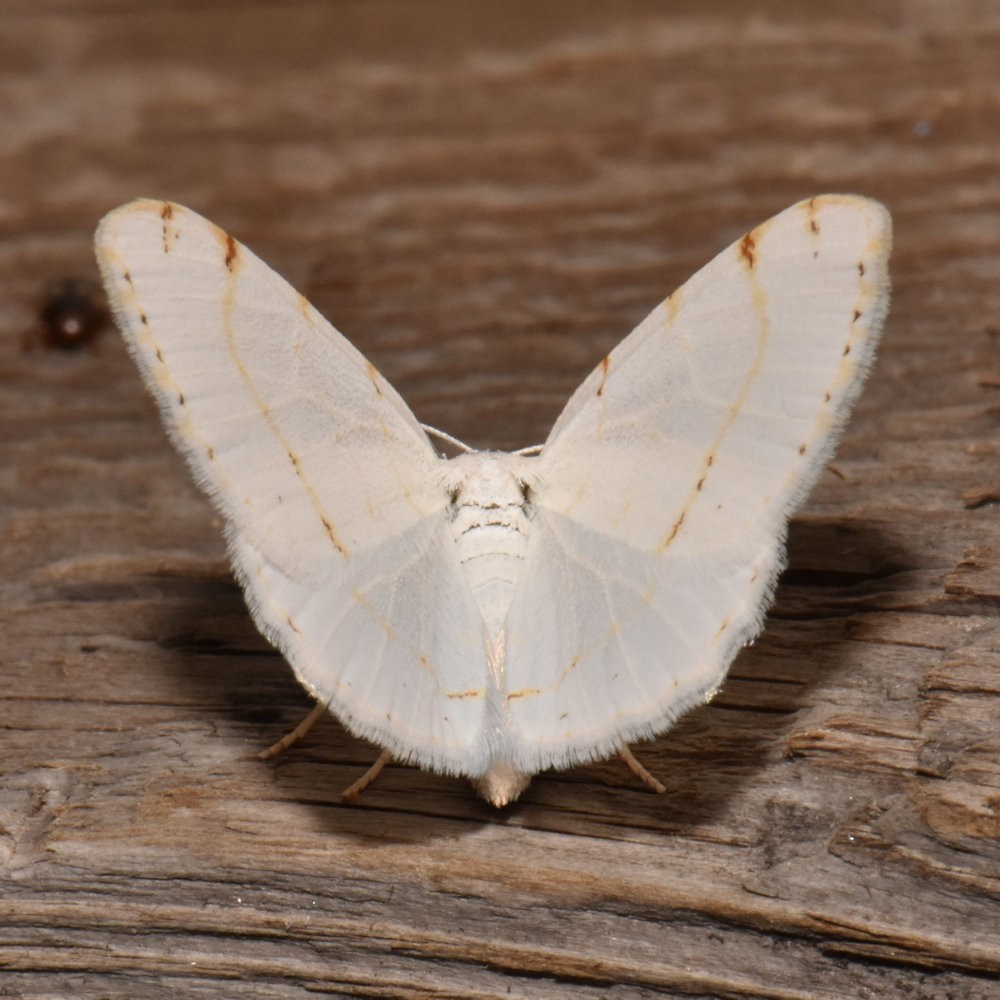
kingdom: Animalia
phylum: Arthropoda
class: Insecta
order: Lepidoptera
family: Geometridae
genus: Macaria
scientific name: Macaria pustularia
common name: Lesser maple spanworm moth
